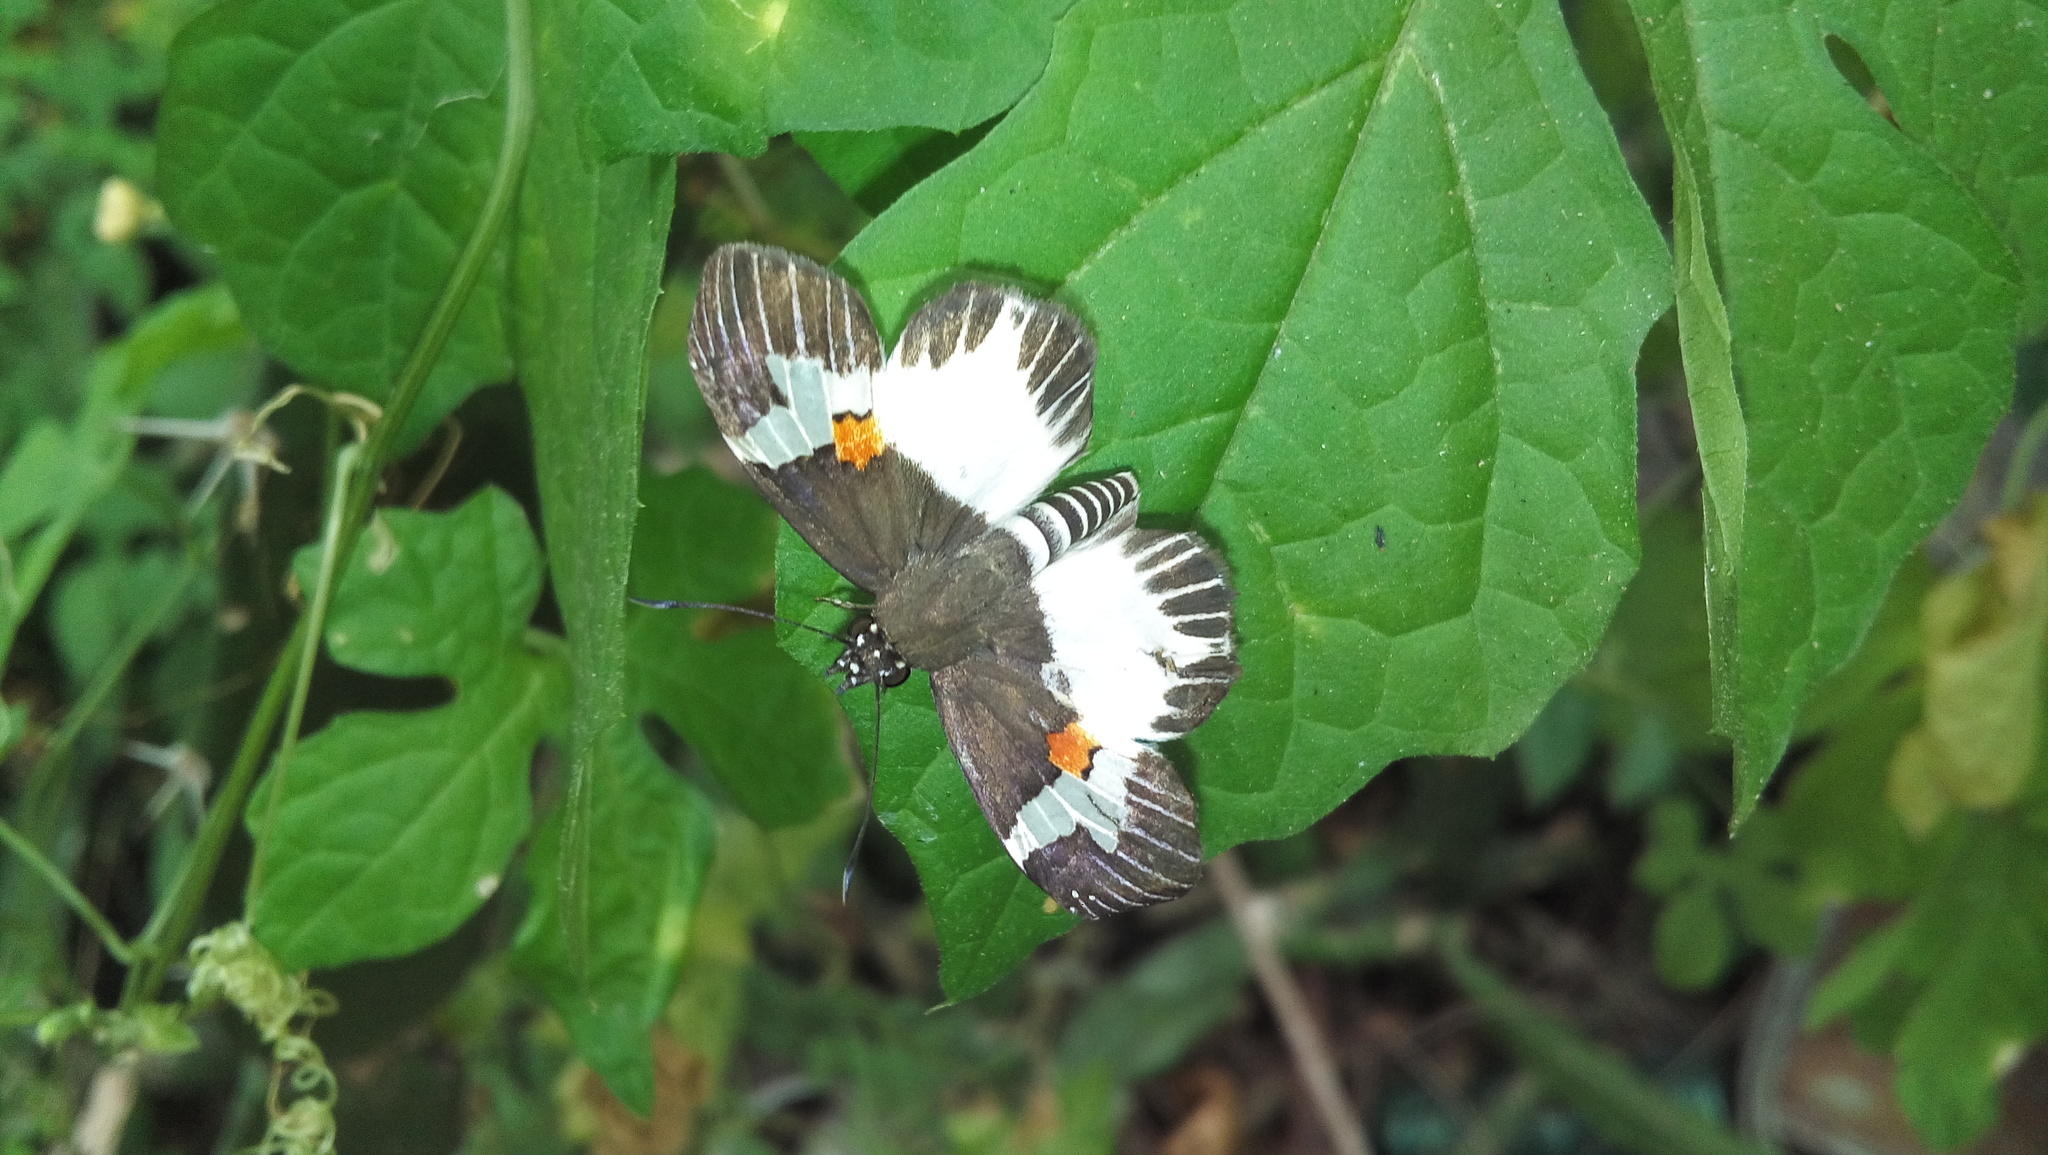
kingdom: Animalia
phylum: Arthropoda
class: Insecta
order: Lepidoptera
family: Hesperiidae
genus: Atarnes
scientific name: Atarnes sallei
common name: Orange-spotted skipper
